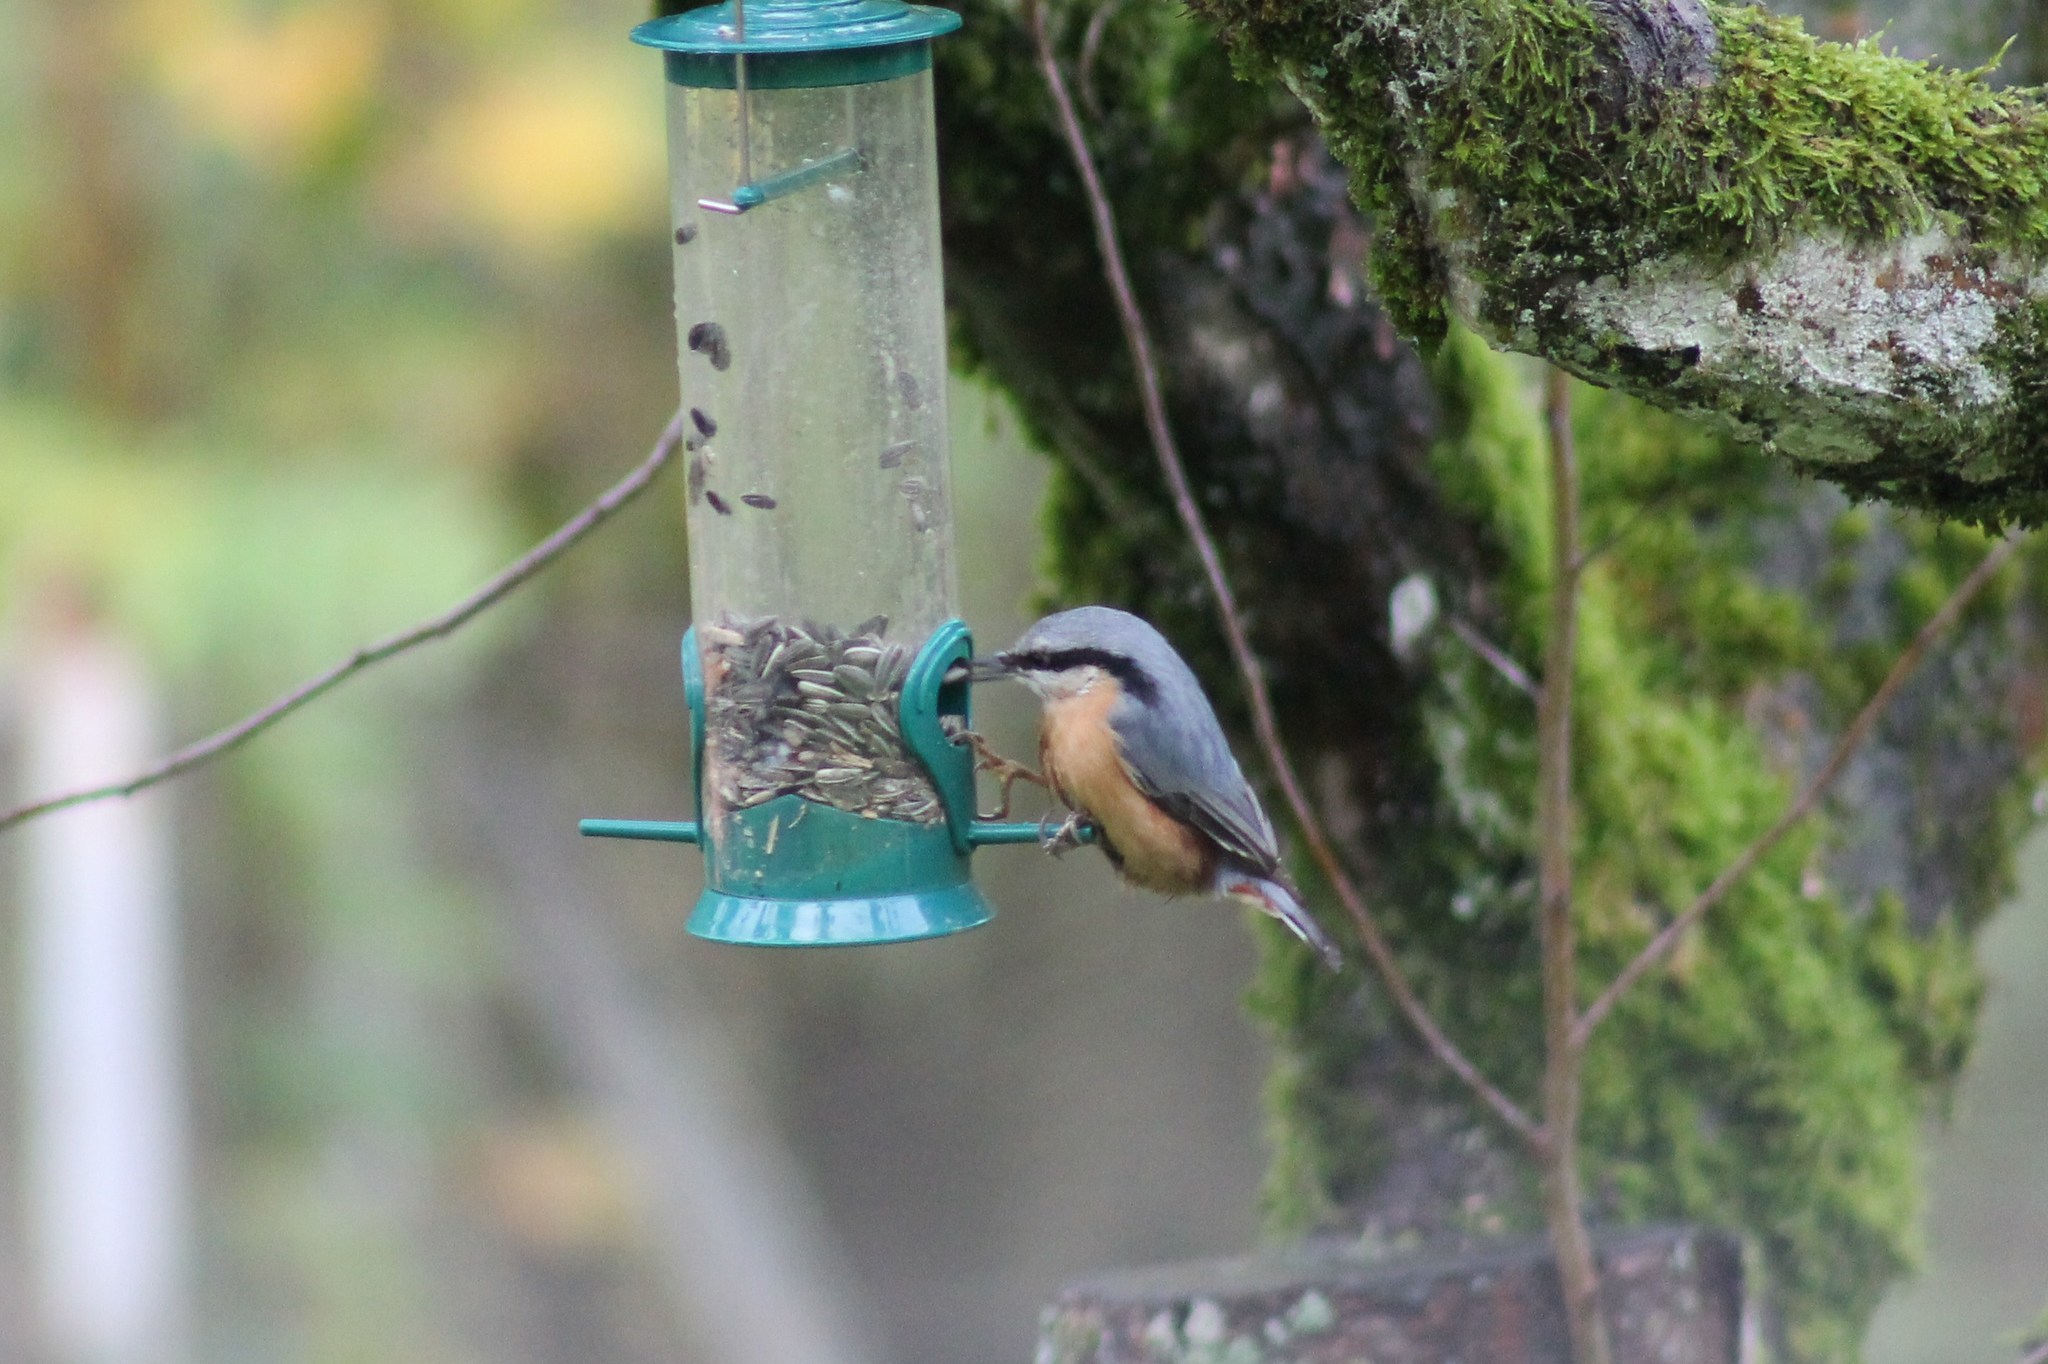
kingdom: Animalia
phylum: Chordata
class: Aves
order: Passeriformes
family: Sittidae
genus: Sitta
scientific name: Sitta europaea
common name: Eurasian nuthatch
